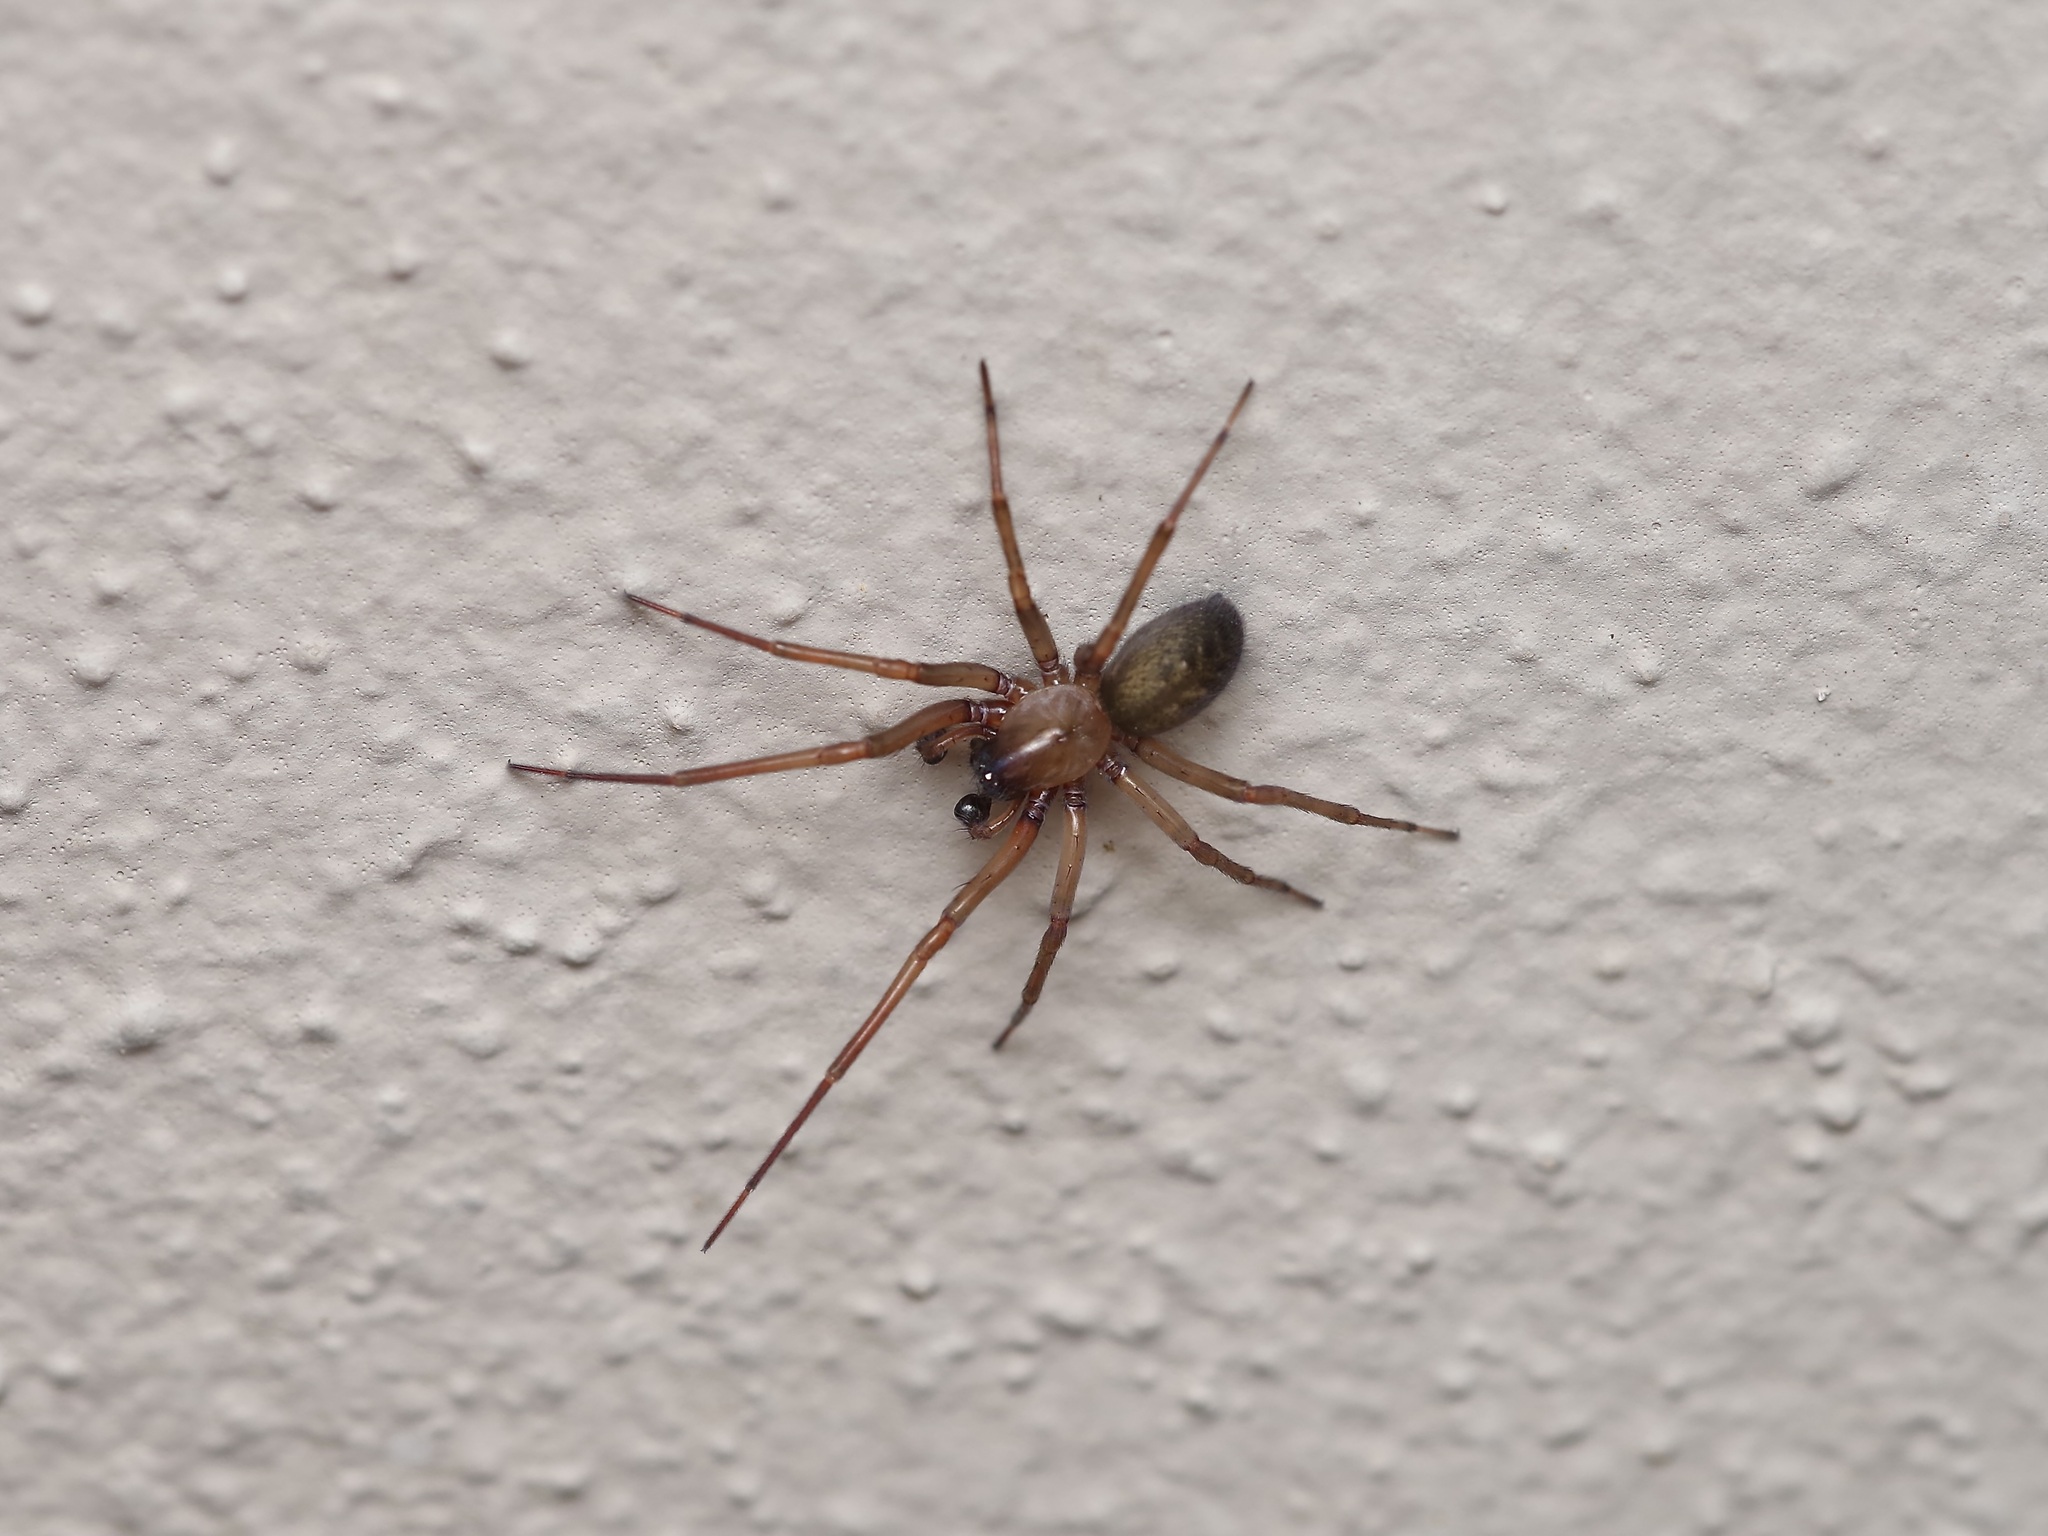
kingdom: Animalia
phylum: Arthropoda
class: Arachnida
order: Araneae
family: Desidae
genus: Metaltella
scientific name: Metaltella simoni
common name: Cribellate spider
